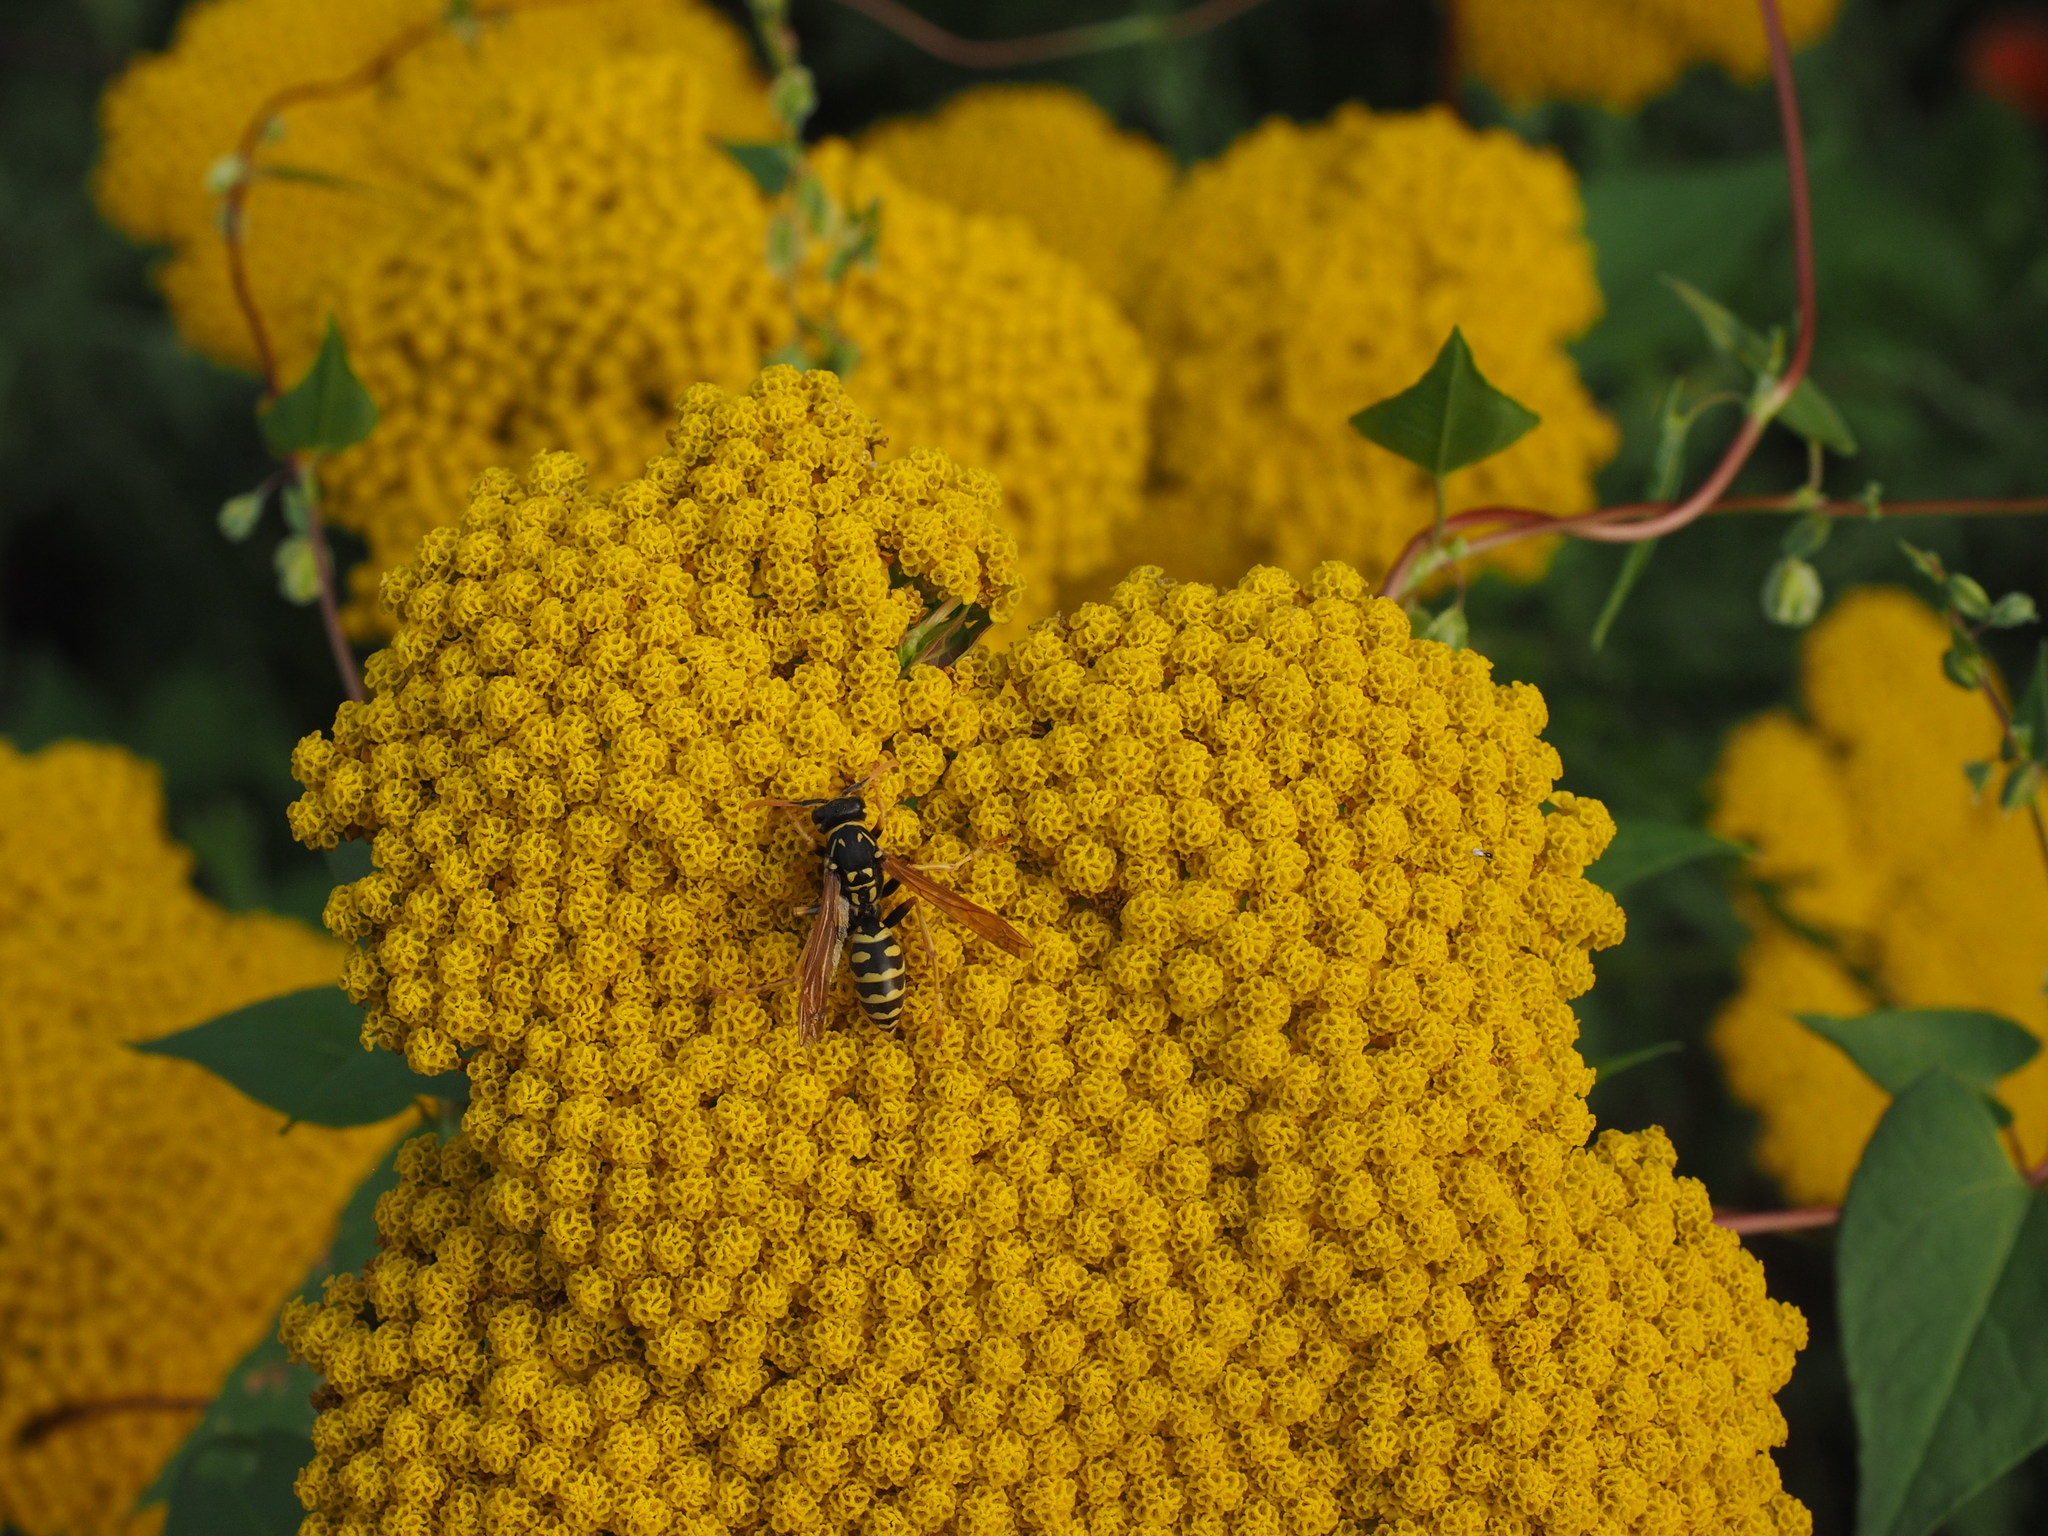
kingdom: Animalia
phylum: Arthropoda
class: Insecta
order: Hymenoptera
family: Eumenidae
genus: Polistes
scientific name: Polistes dominula
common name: Paper wasp
